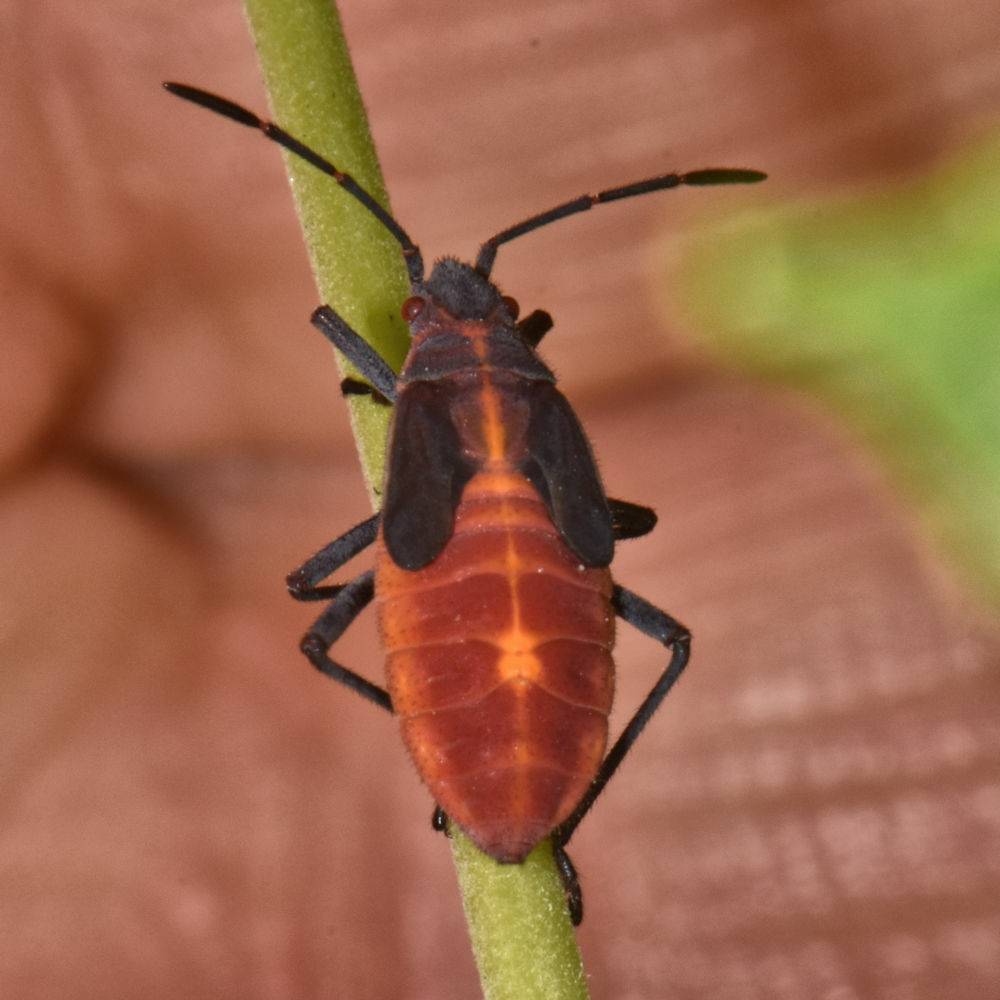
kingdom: Animalia
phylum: Arthropoda
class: Insecta
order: Hemiptera
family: Rhopalidae
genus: Boisea
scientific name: Boisea trivittata
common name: Boxelder bug
